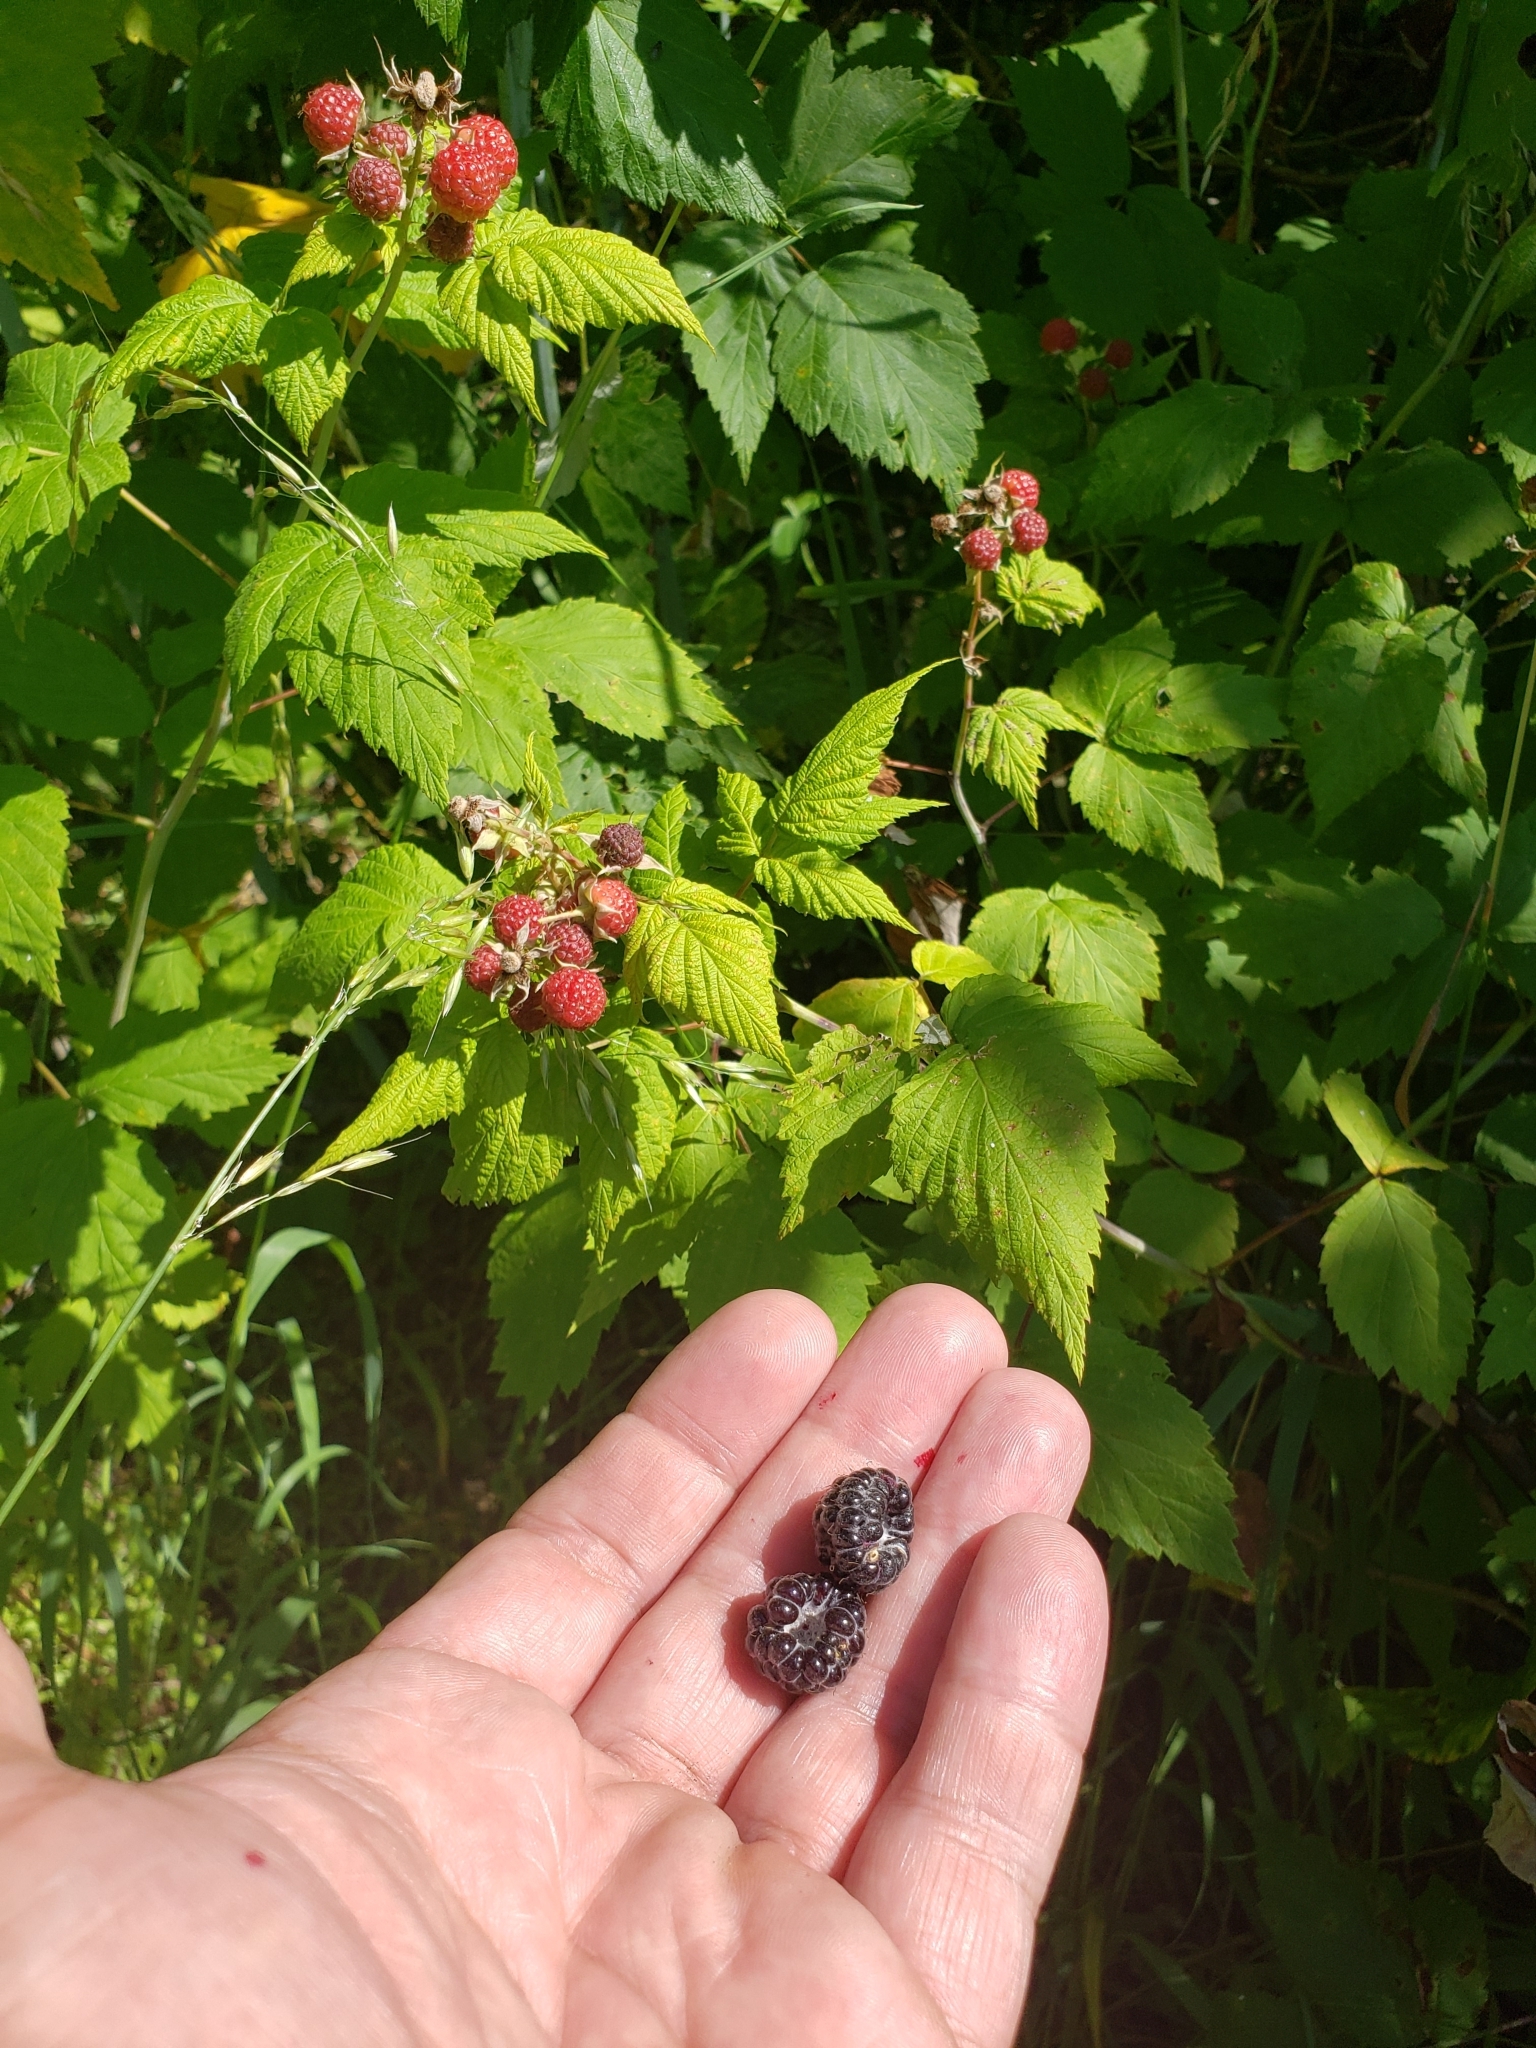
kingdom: Plantae
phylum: Tracheophyta
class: Magnoliopsida
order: Rosales
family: Rosaceae
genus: Rubus
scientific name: Rubus occidentalis
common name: Black raspberry
